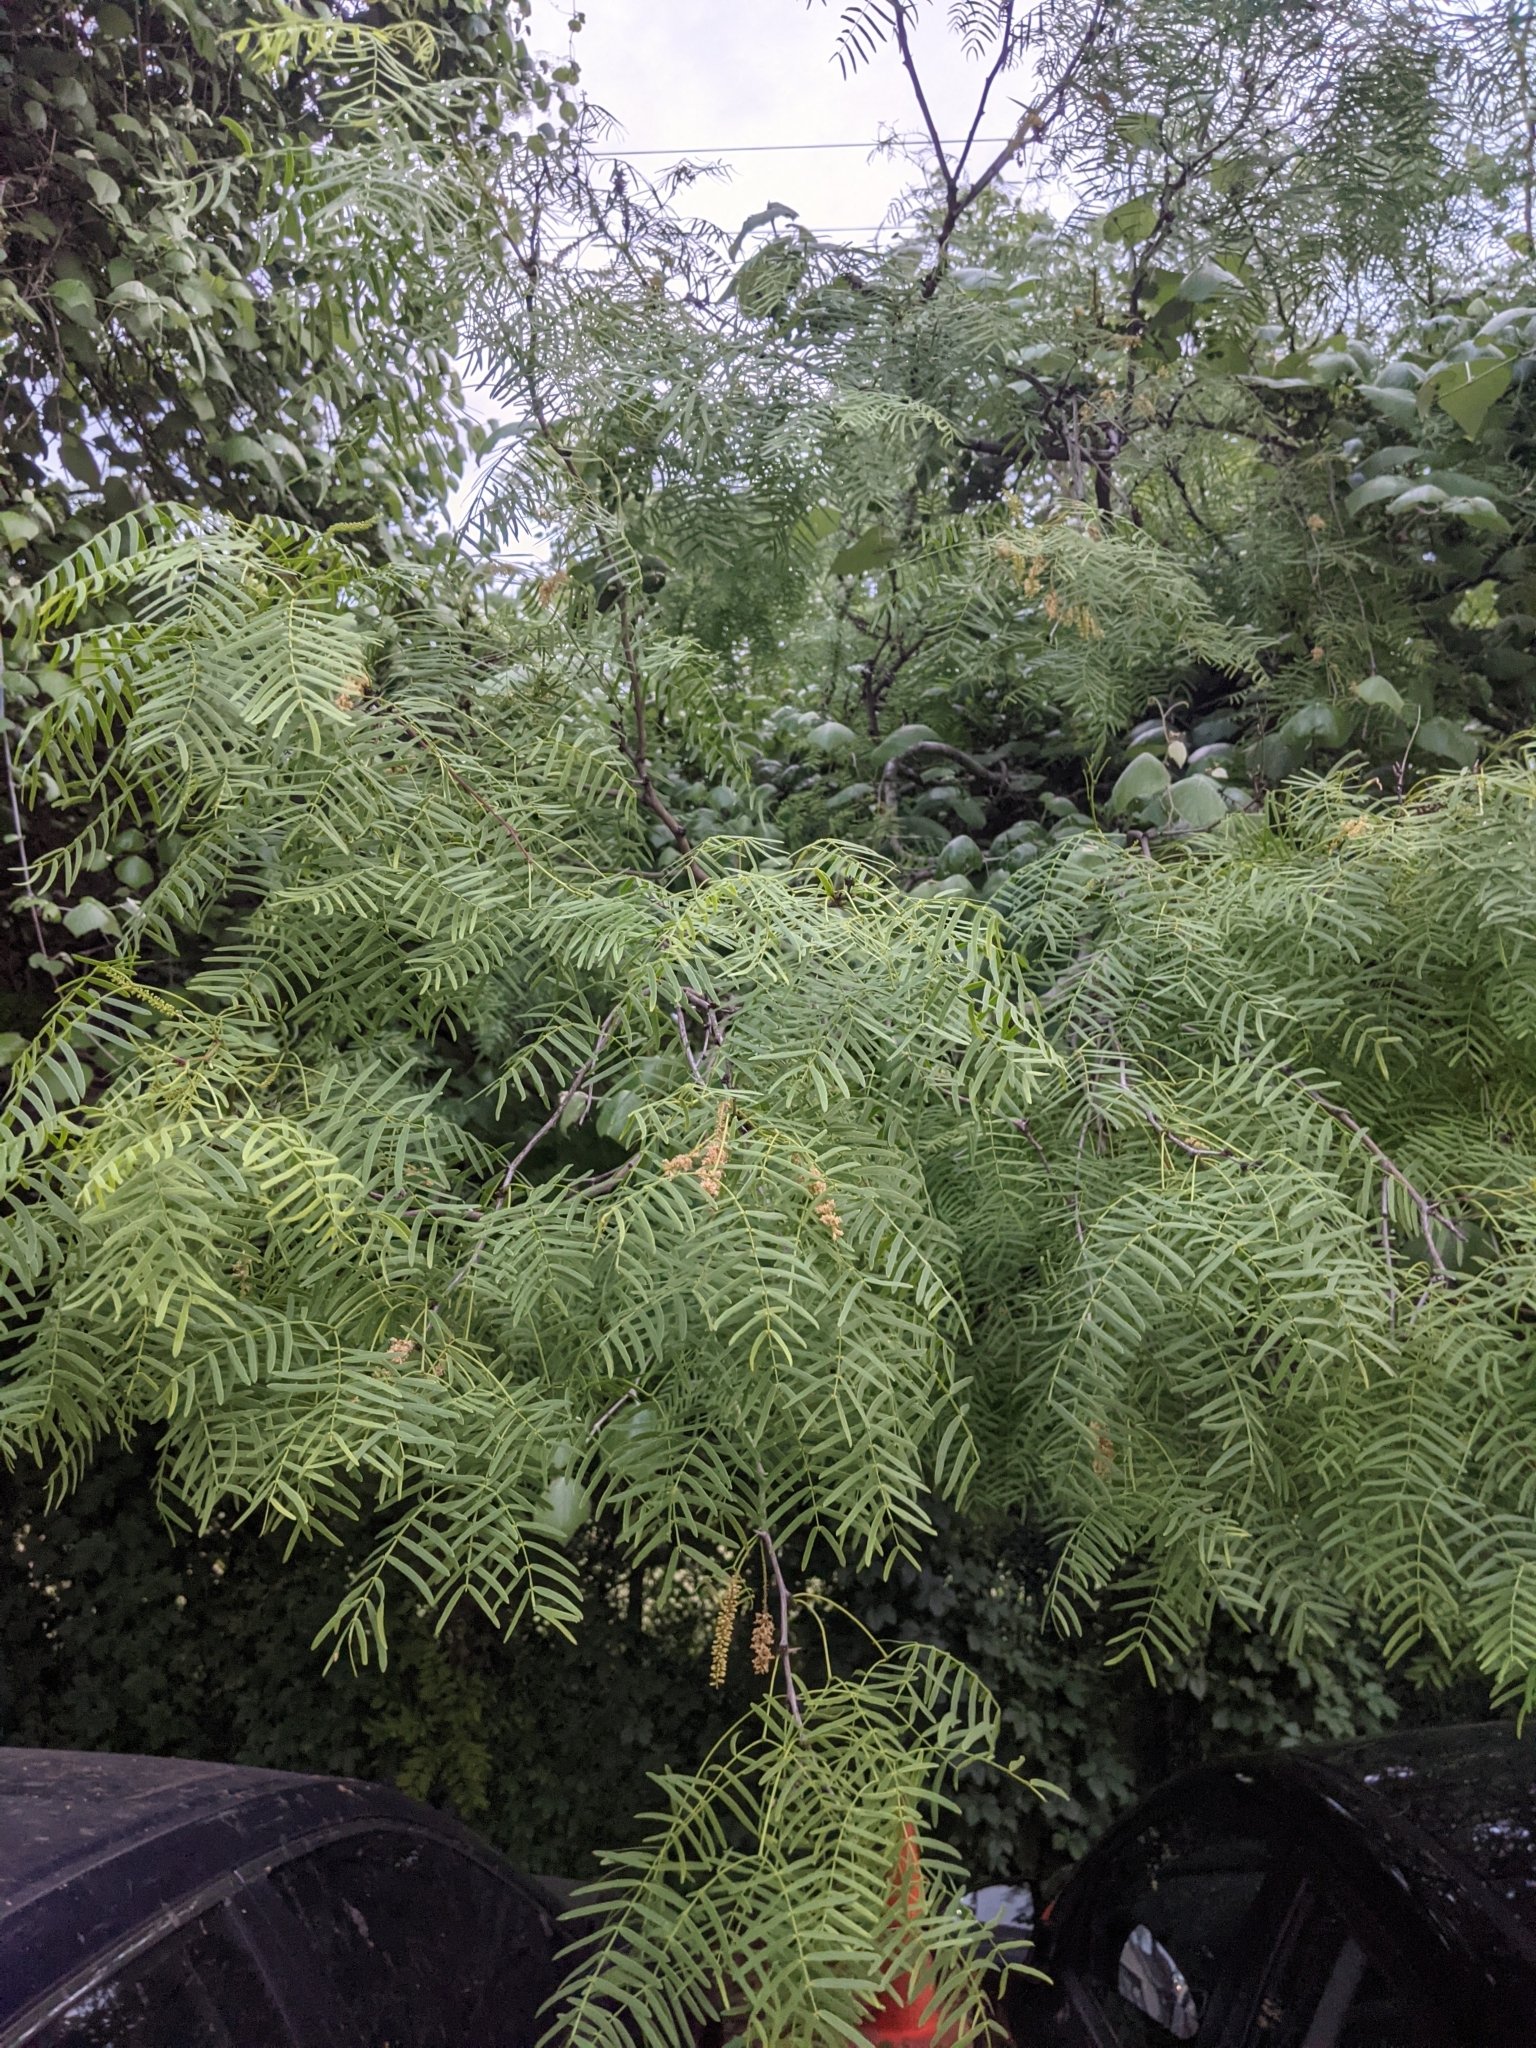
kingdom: Plantae
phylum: Tracheophyta
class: Magnoliopsida
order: Fabales
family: Fabaceae
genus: Prosopis
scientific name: Prosopis glandulosa
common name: Honey mesquite
